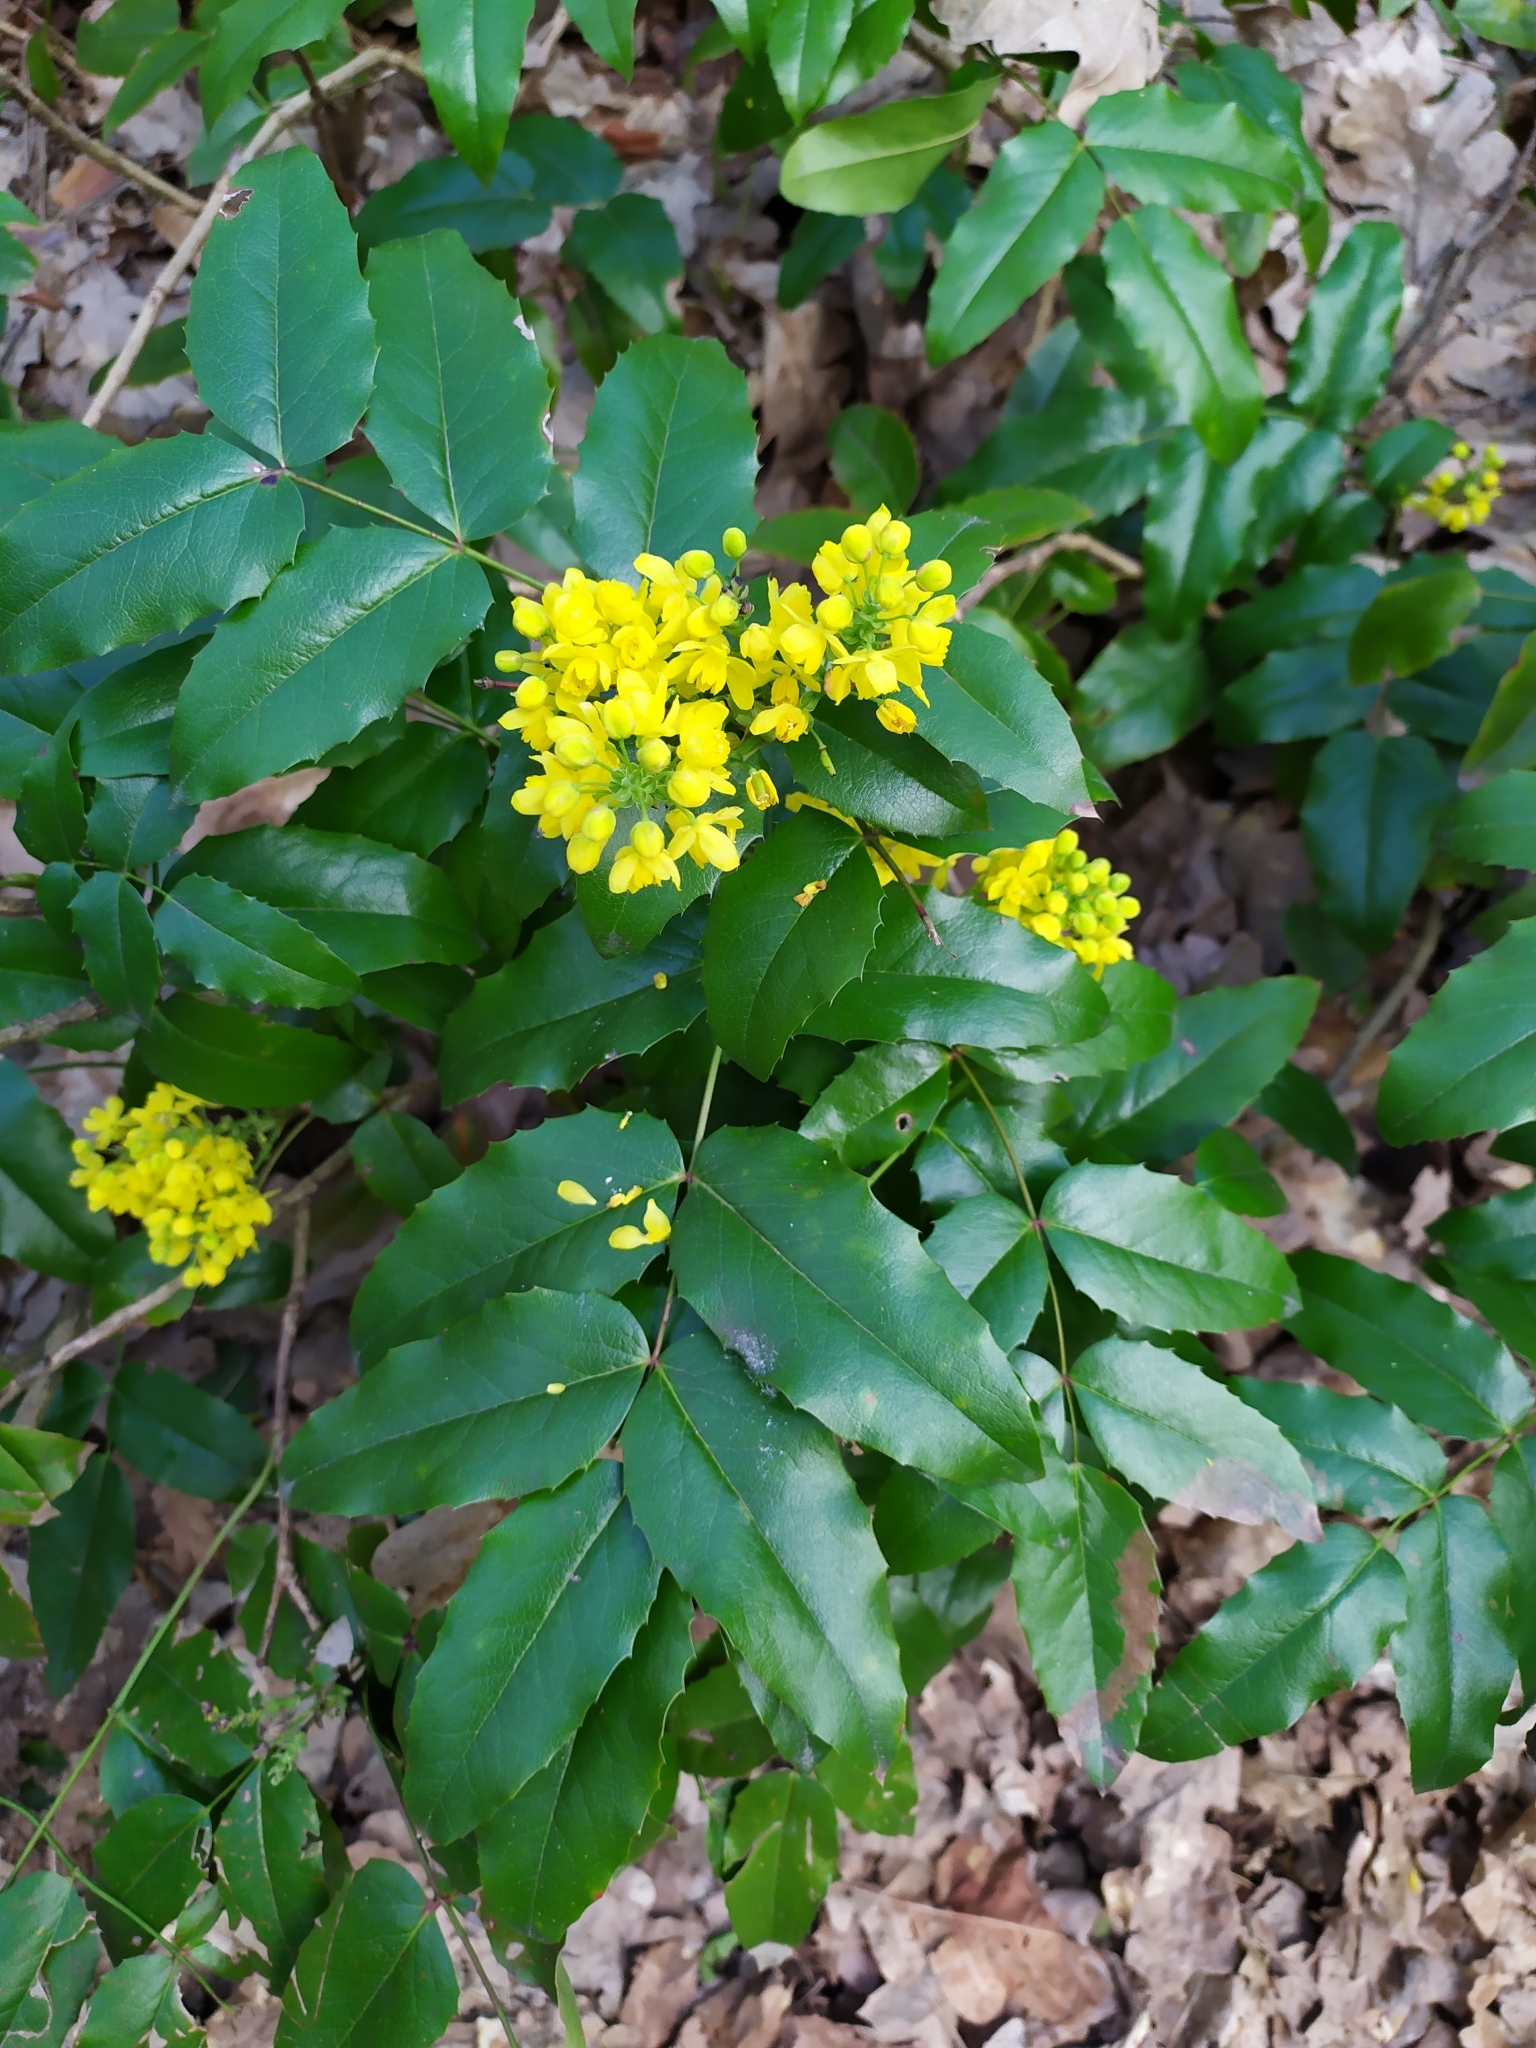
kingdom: Plantae
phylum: Tracheophyta
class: Magnoliopsida
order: Ranunculales
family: Berberidaceae
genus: Mahonia
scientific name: Mahonia aquifolium
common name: Oregon-grape
